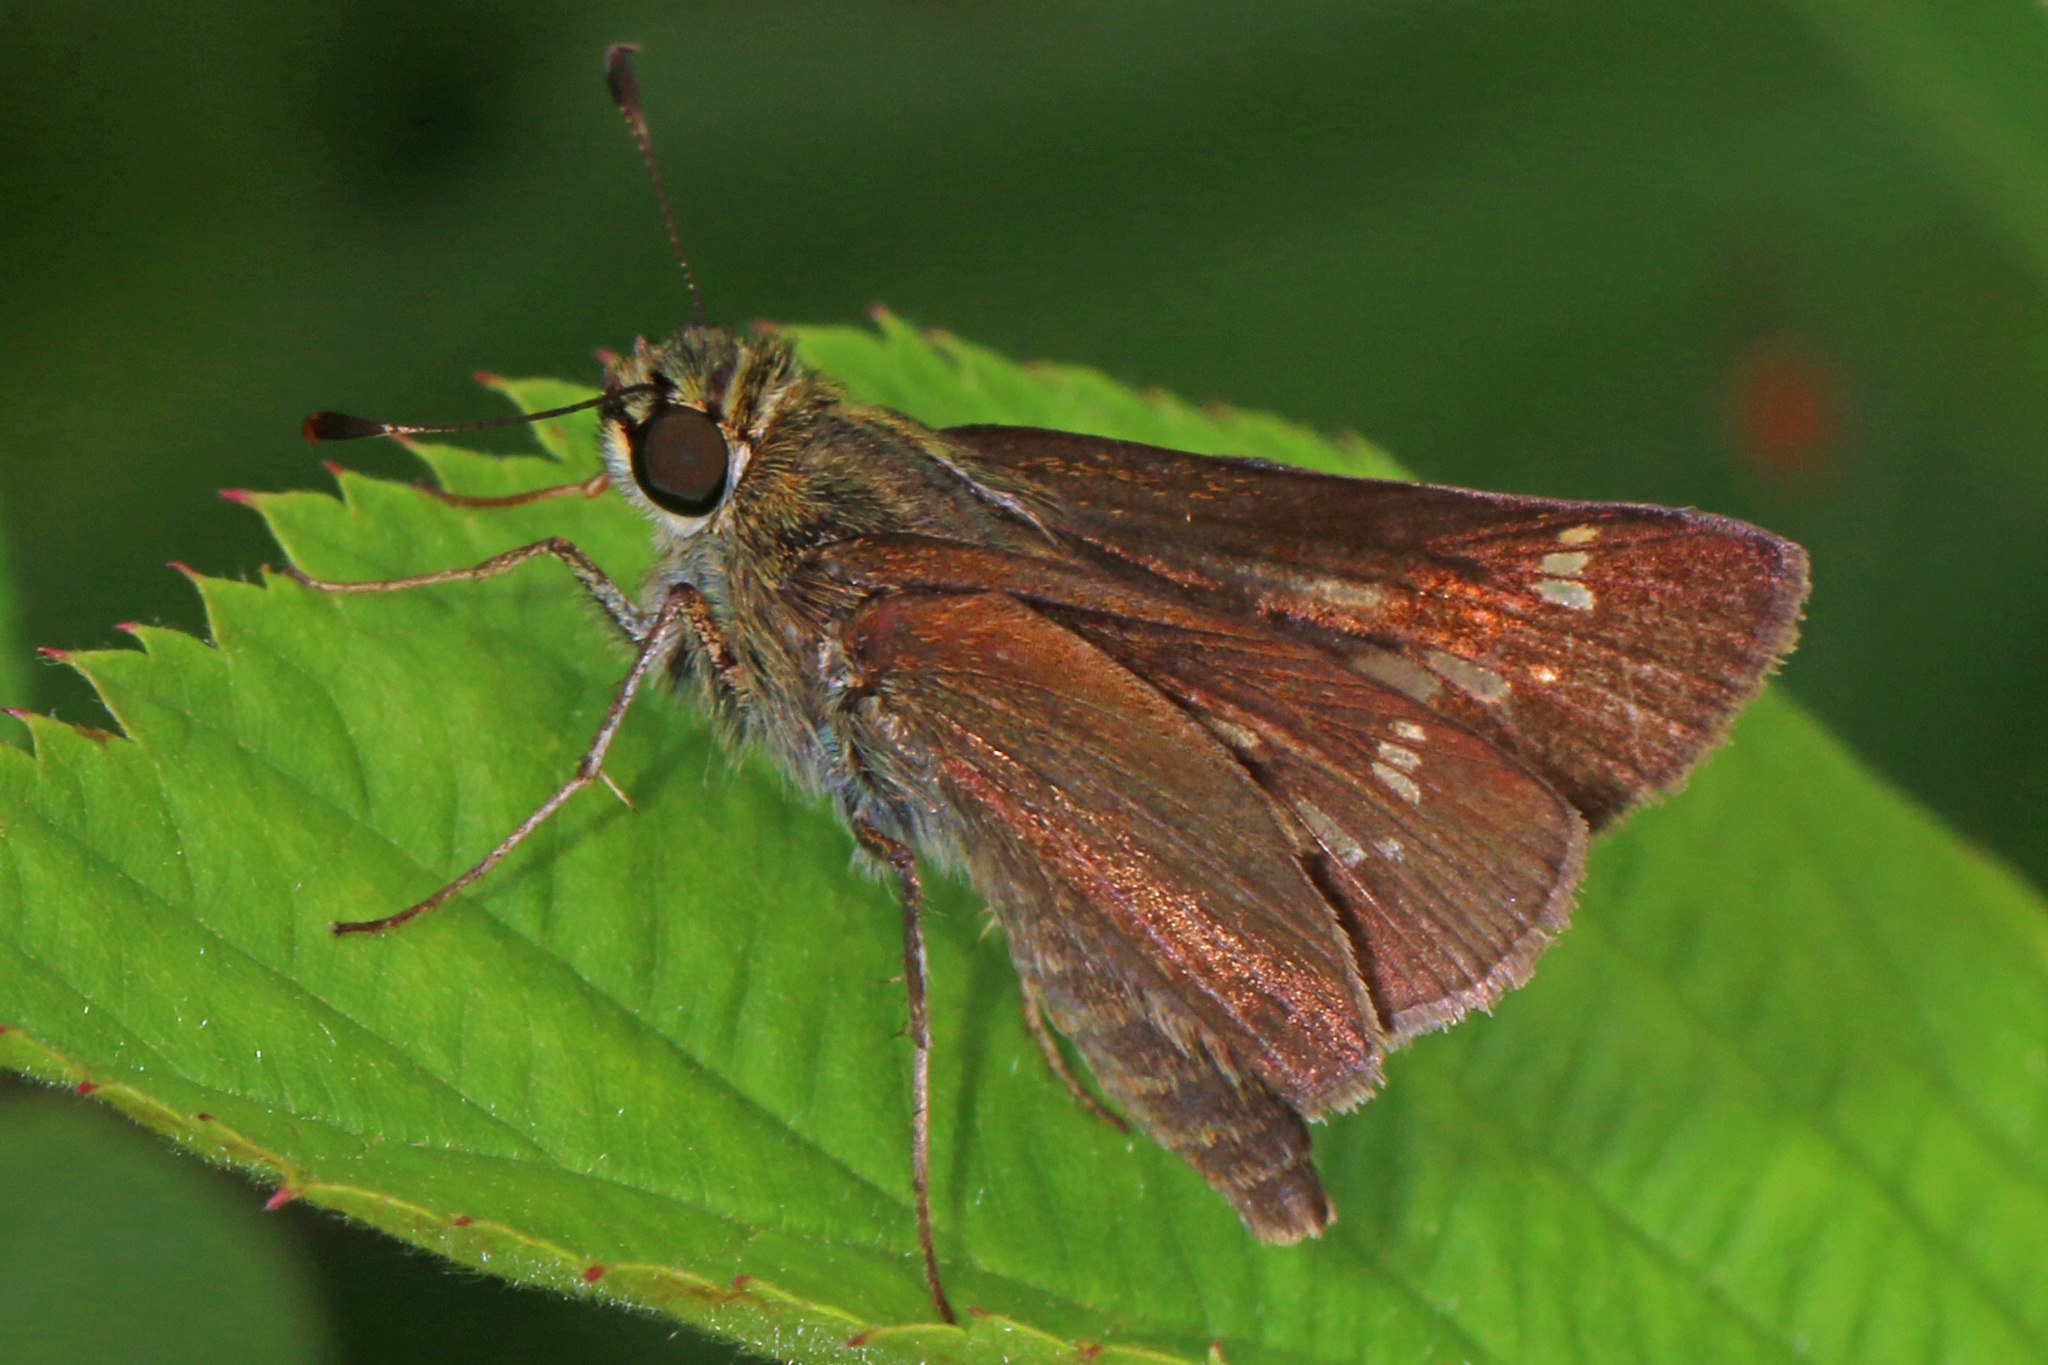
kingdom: Animalia
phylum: Arthropoda
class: Insecta
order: Lepidoptera
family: Hesperiidae
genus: Vernia
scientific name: Vernia verna
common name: Little glassywing
